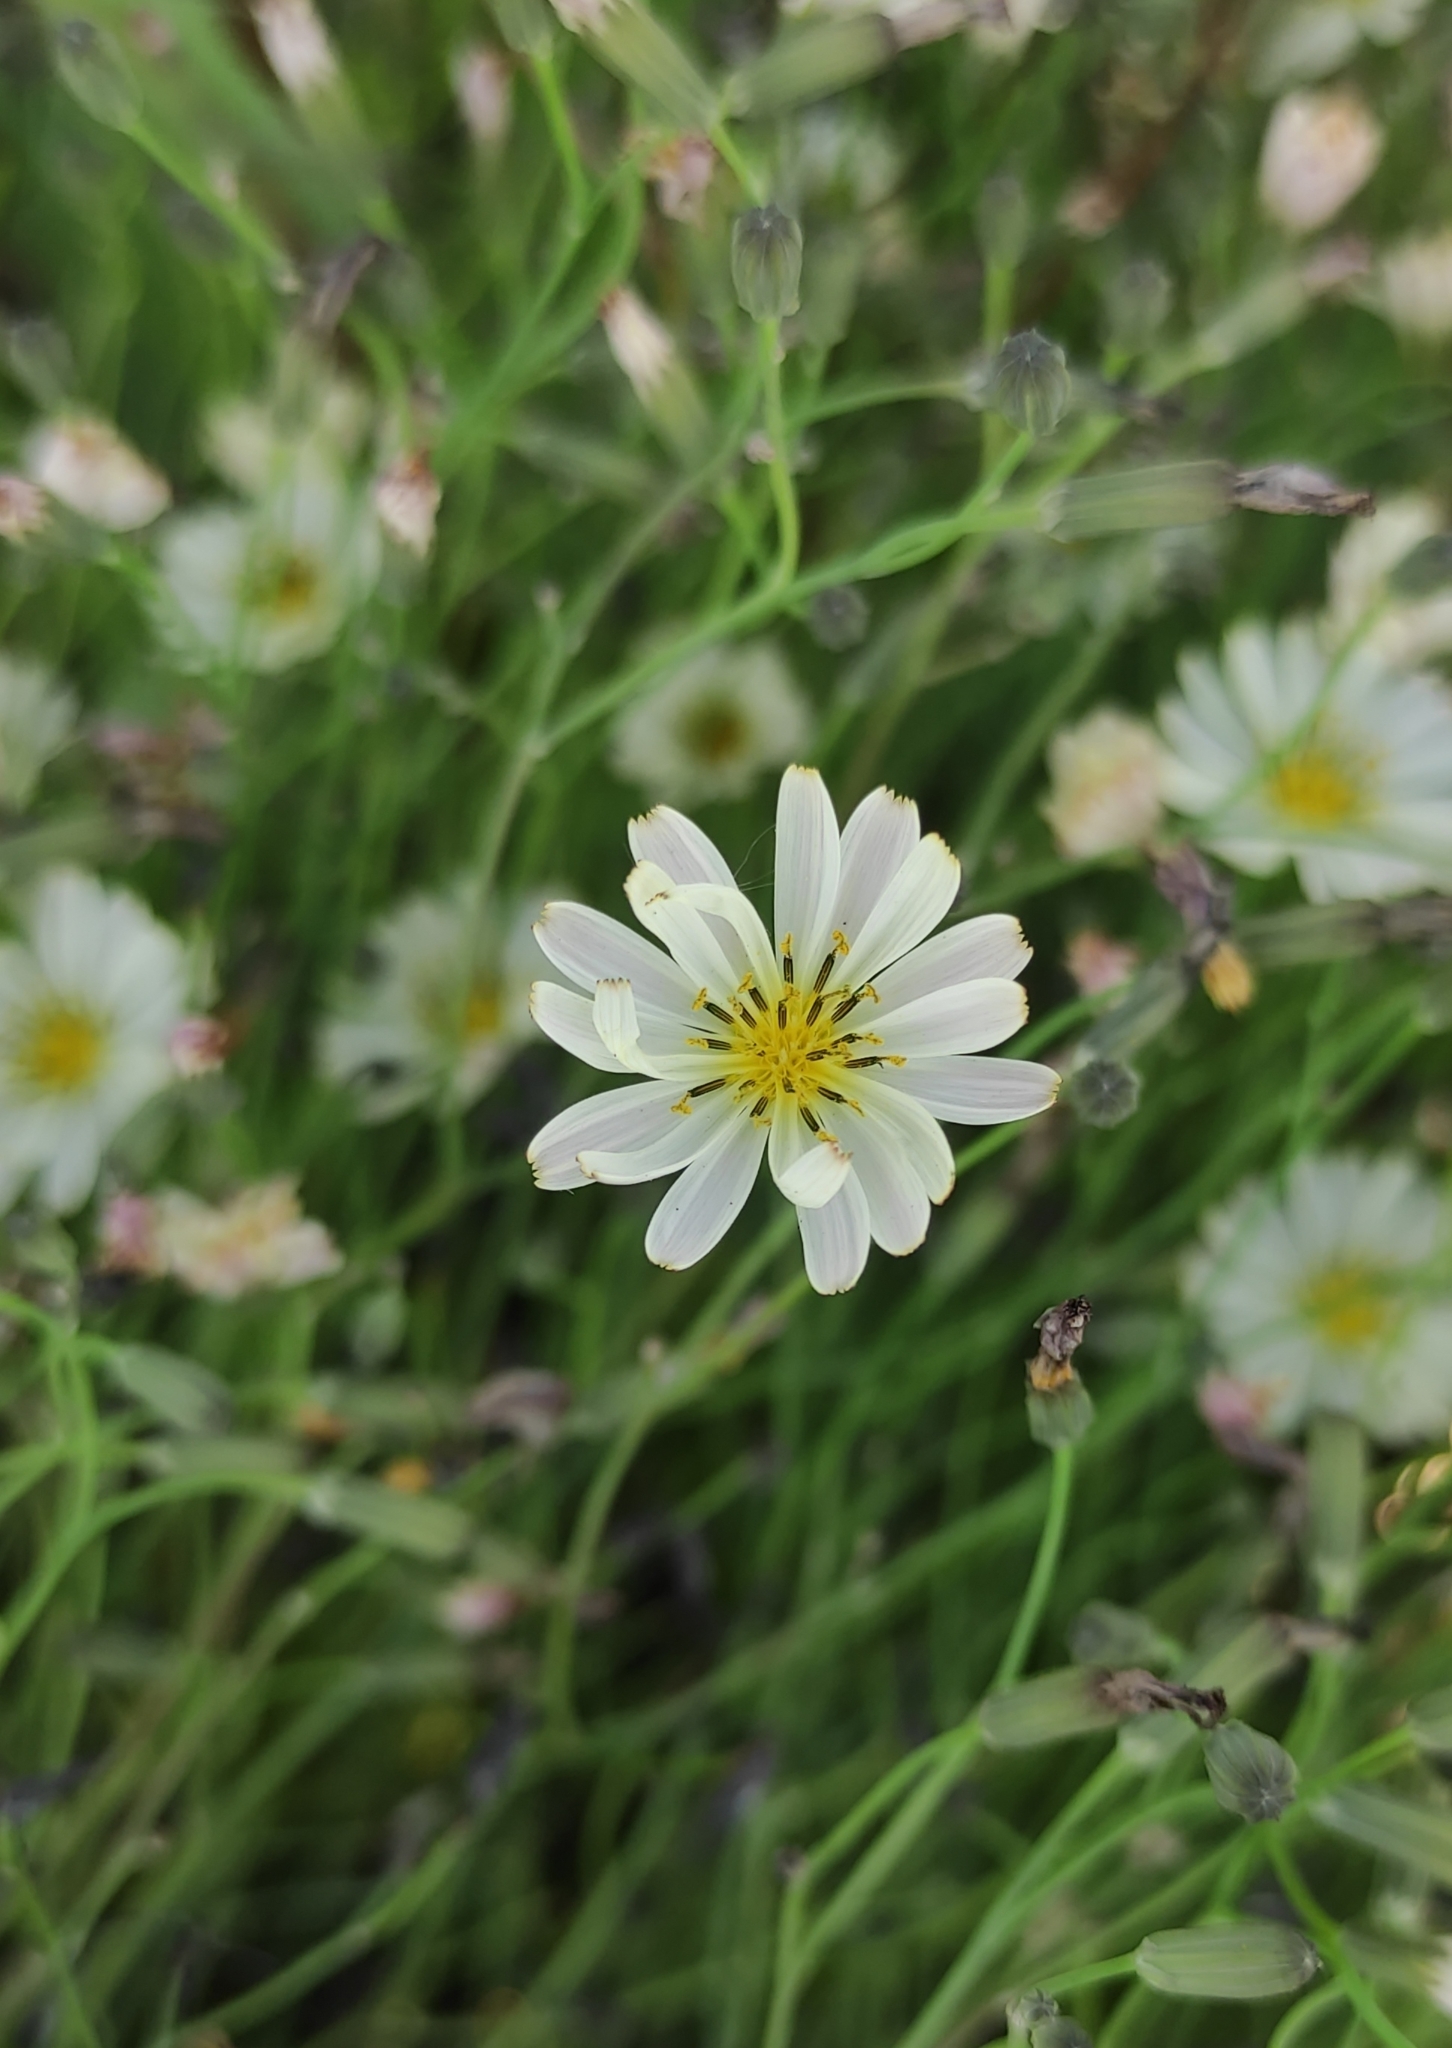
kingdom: Plantae
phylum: Tracheophyta
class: Magnoliopsida
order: Asterales
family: Asteraceae
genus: Ixeris
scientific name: Ixeris chinensis
